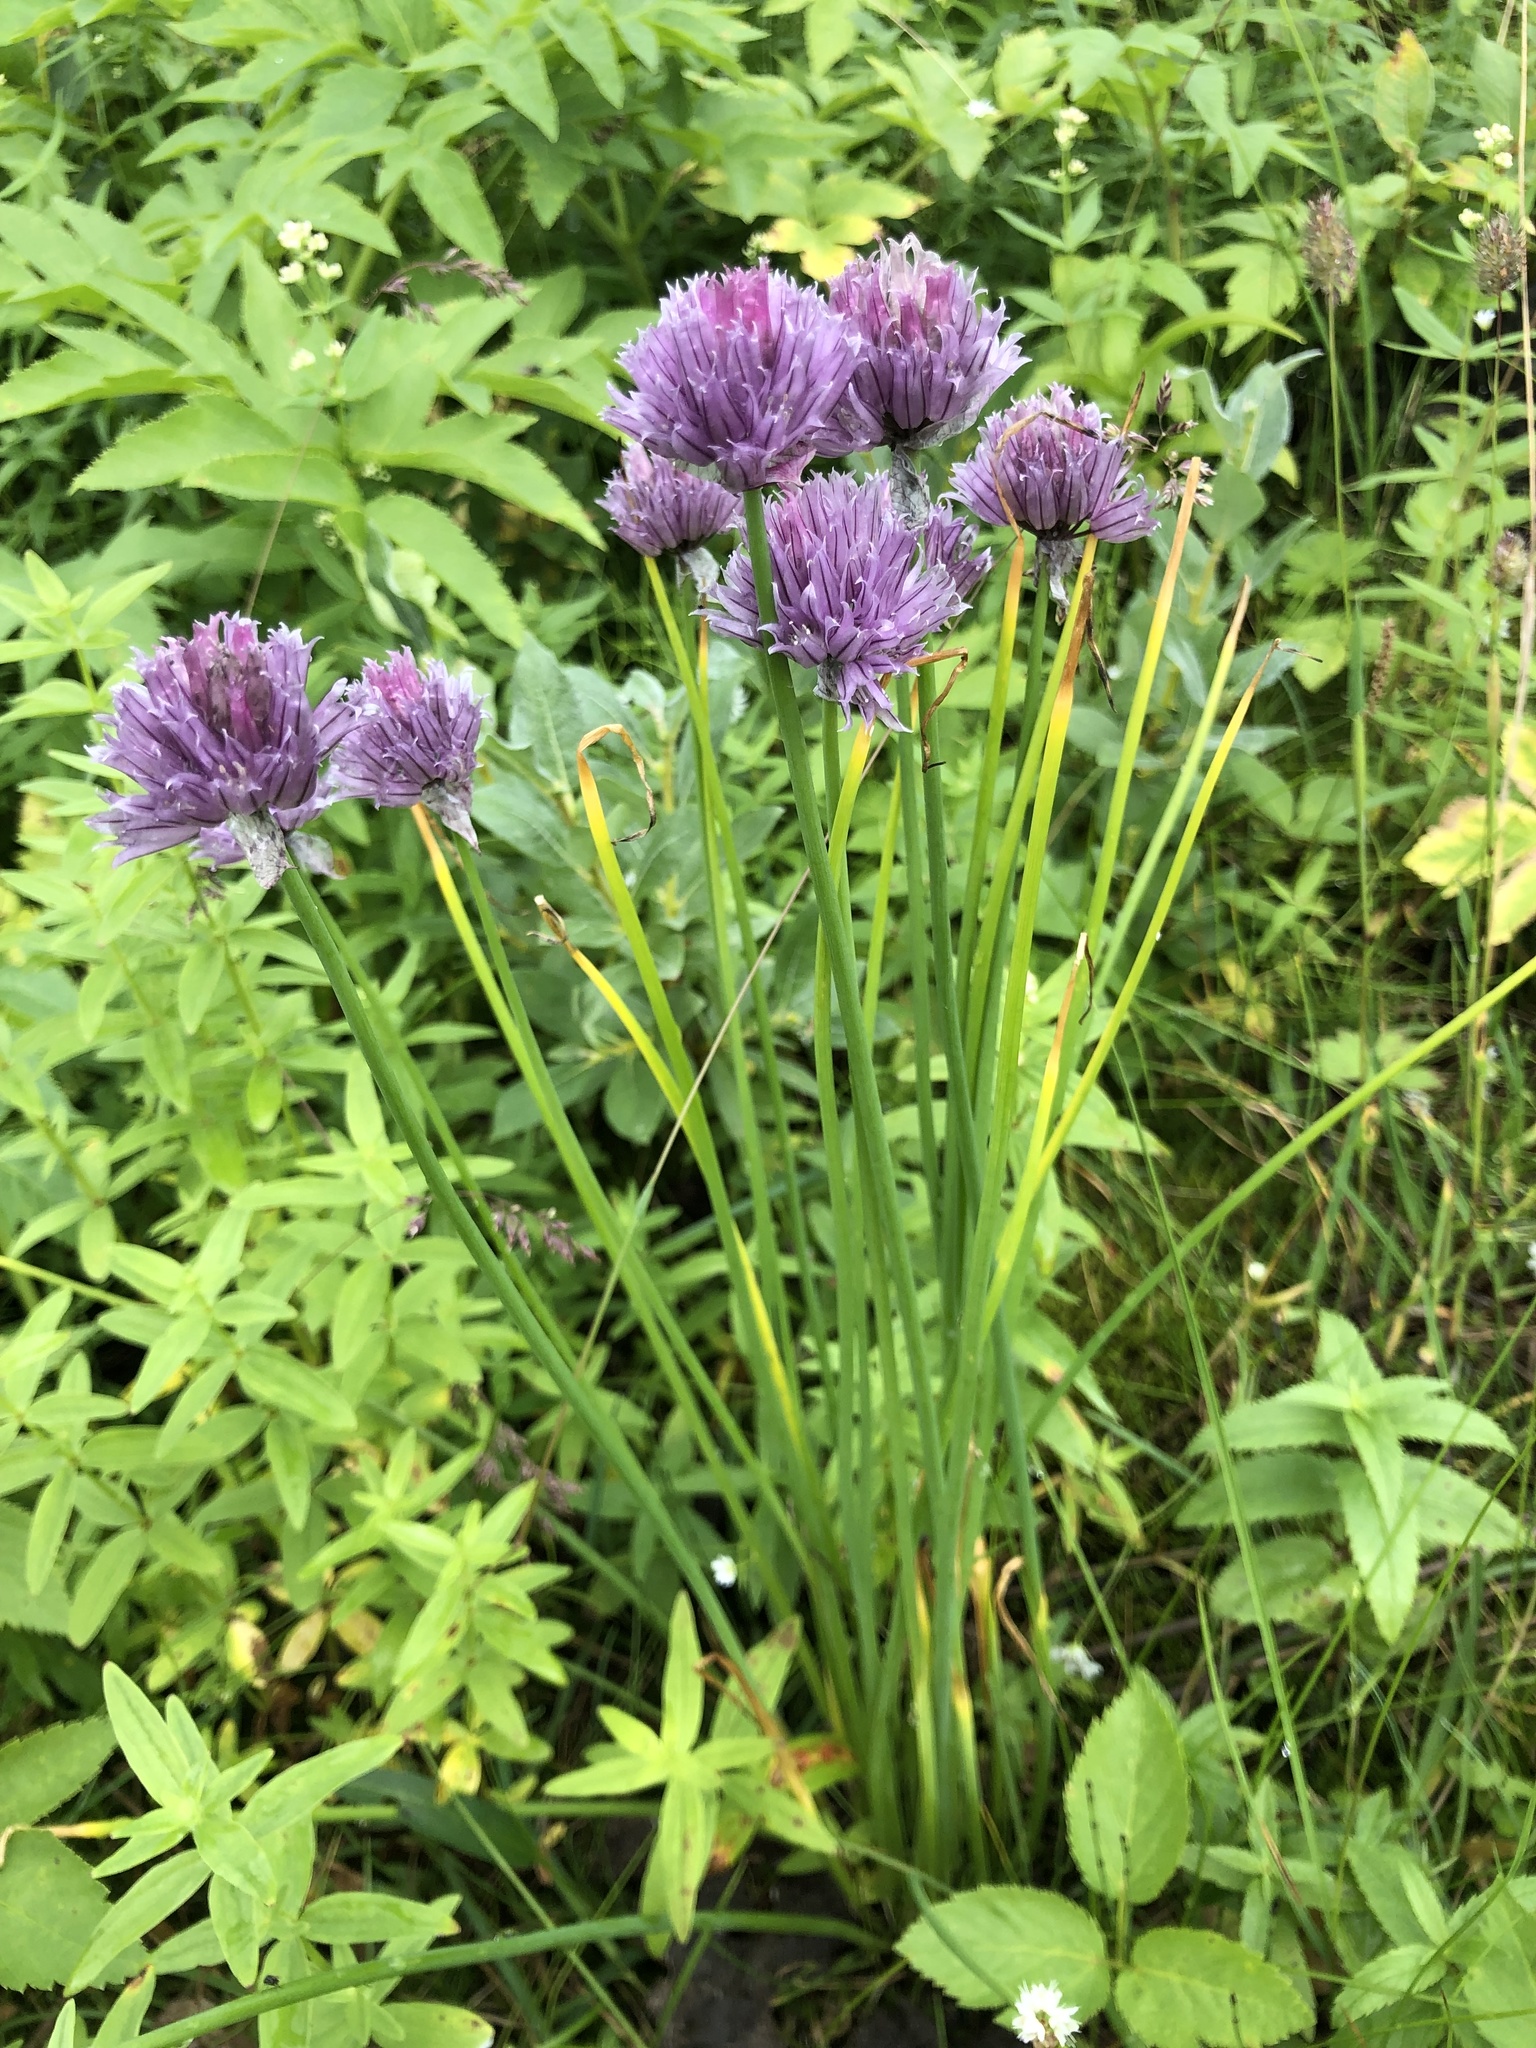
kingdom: Plantae
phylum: Tracheophyta
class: Liliopsida
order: Asparagales
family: Amaryllidaceae
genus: Allium
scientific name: Allium schoenoprasum
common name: Chives
